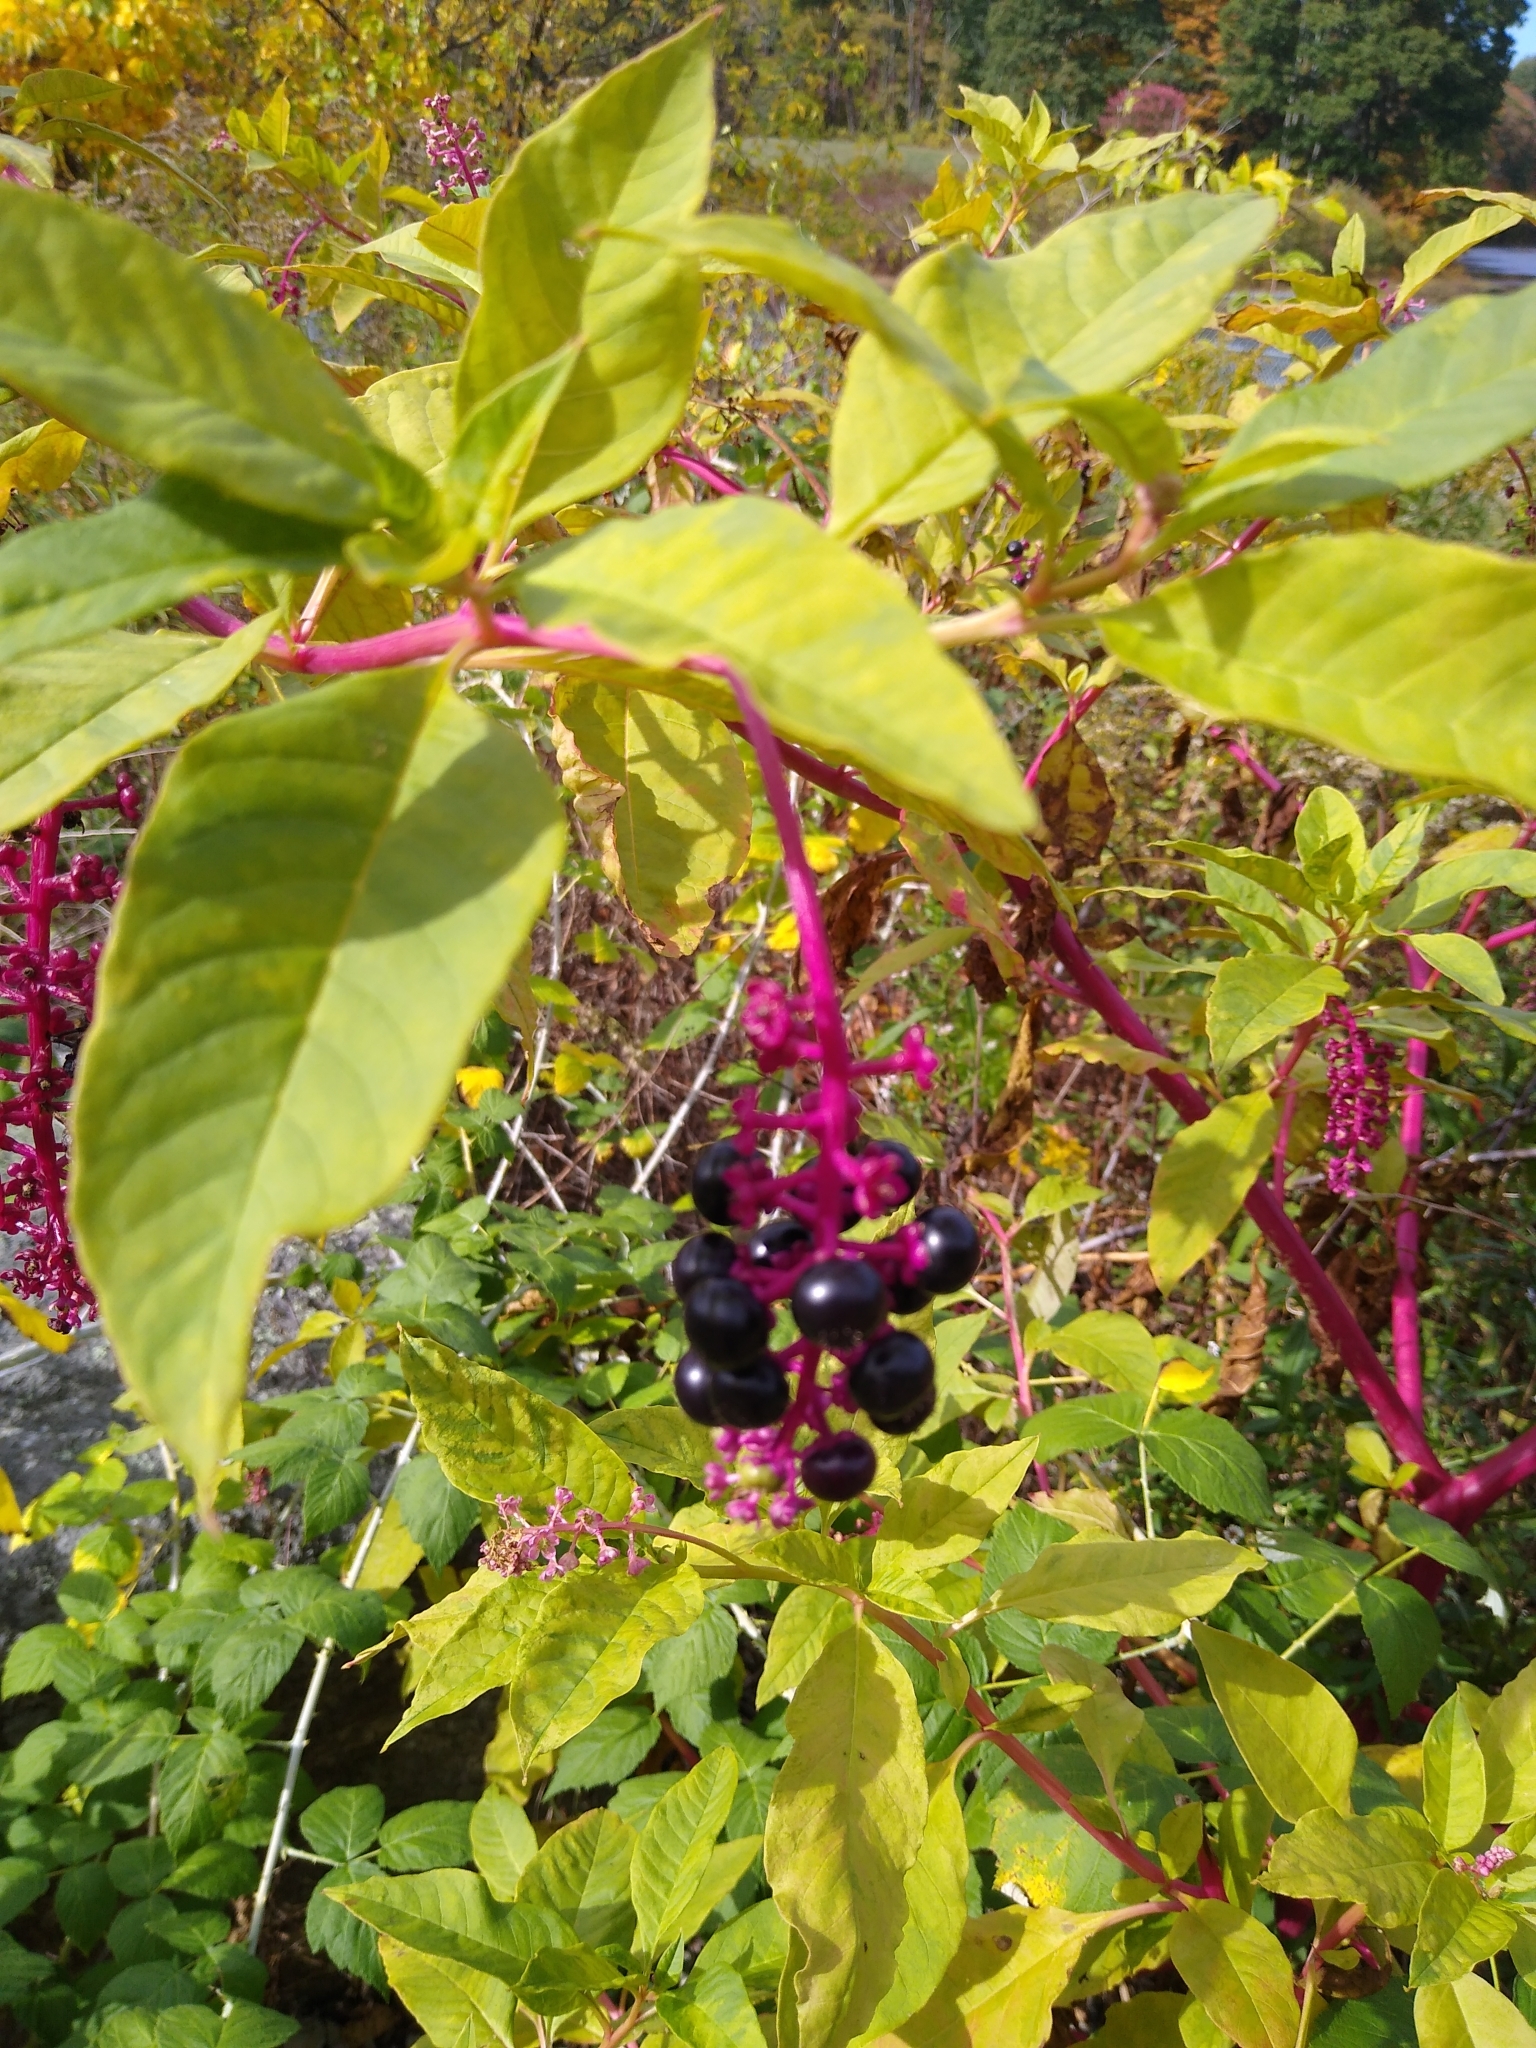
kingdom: Plantae
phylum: Tracheophyta
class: Magnoliopsida
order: Caryophyllales
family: Phytolaccaceae
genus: Phytolacca
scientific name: Phytolacca americana
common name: American pokeweed
